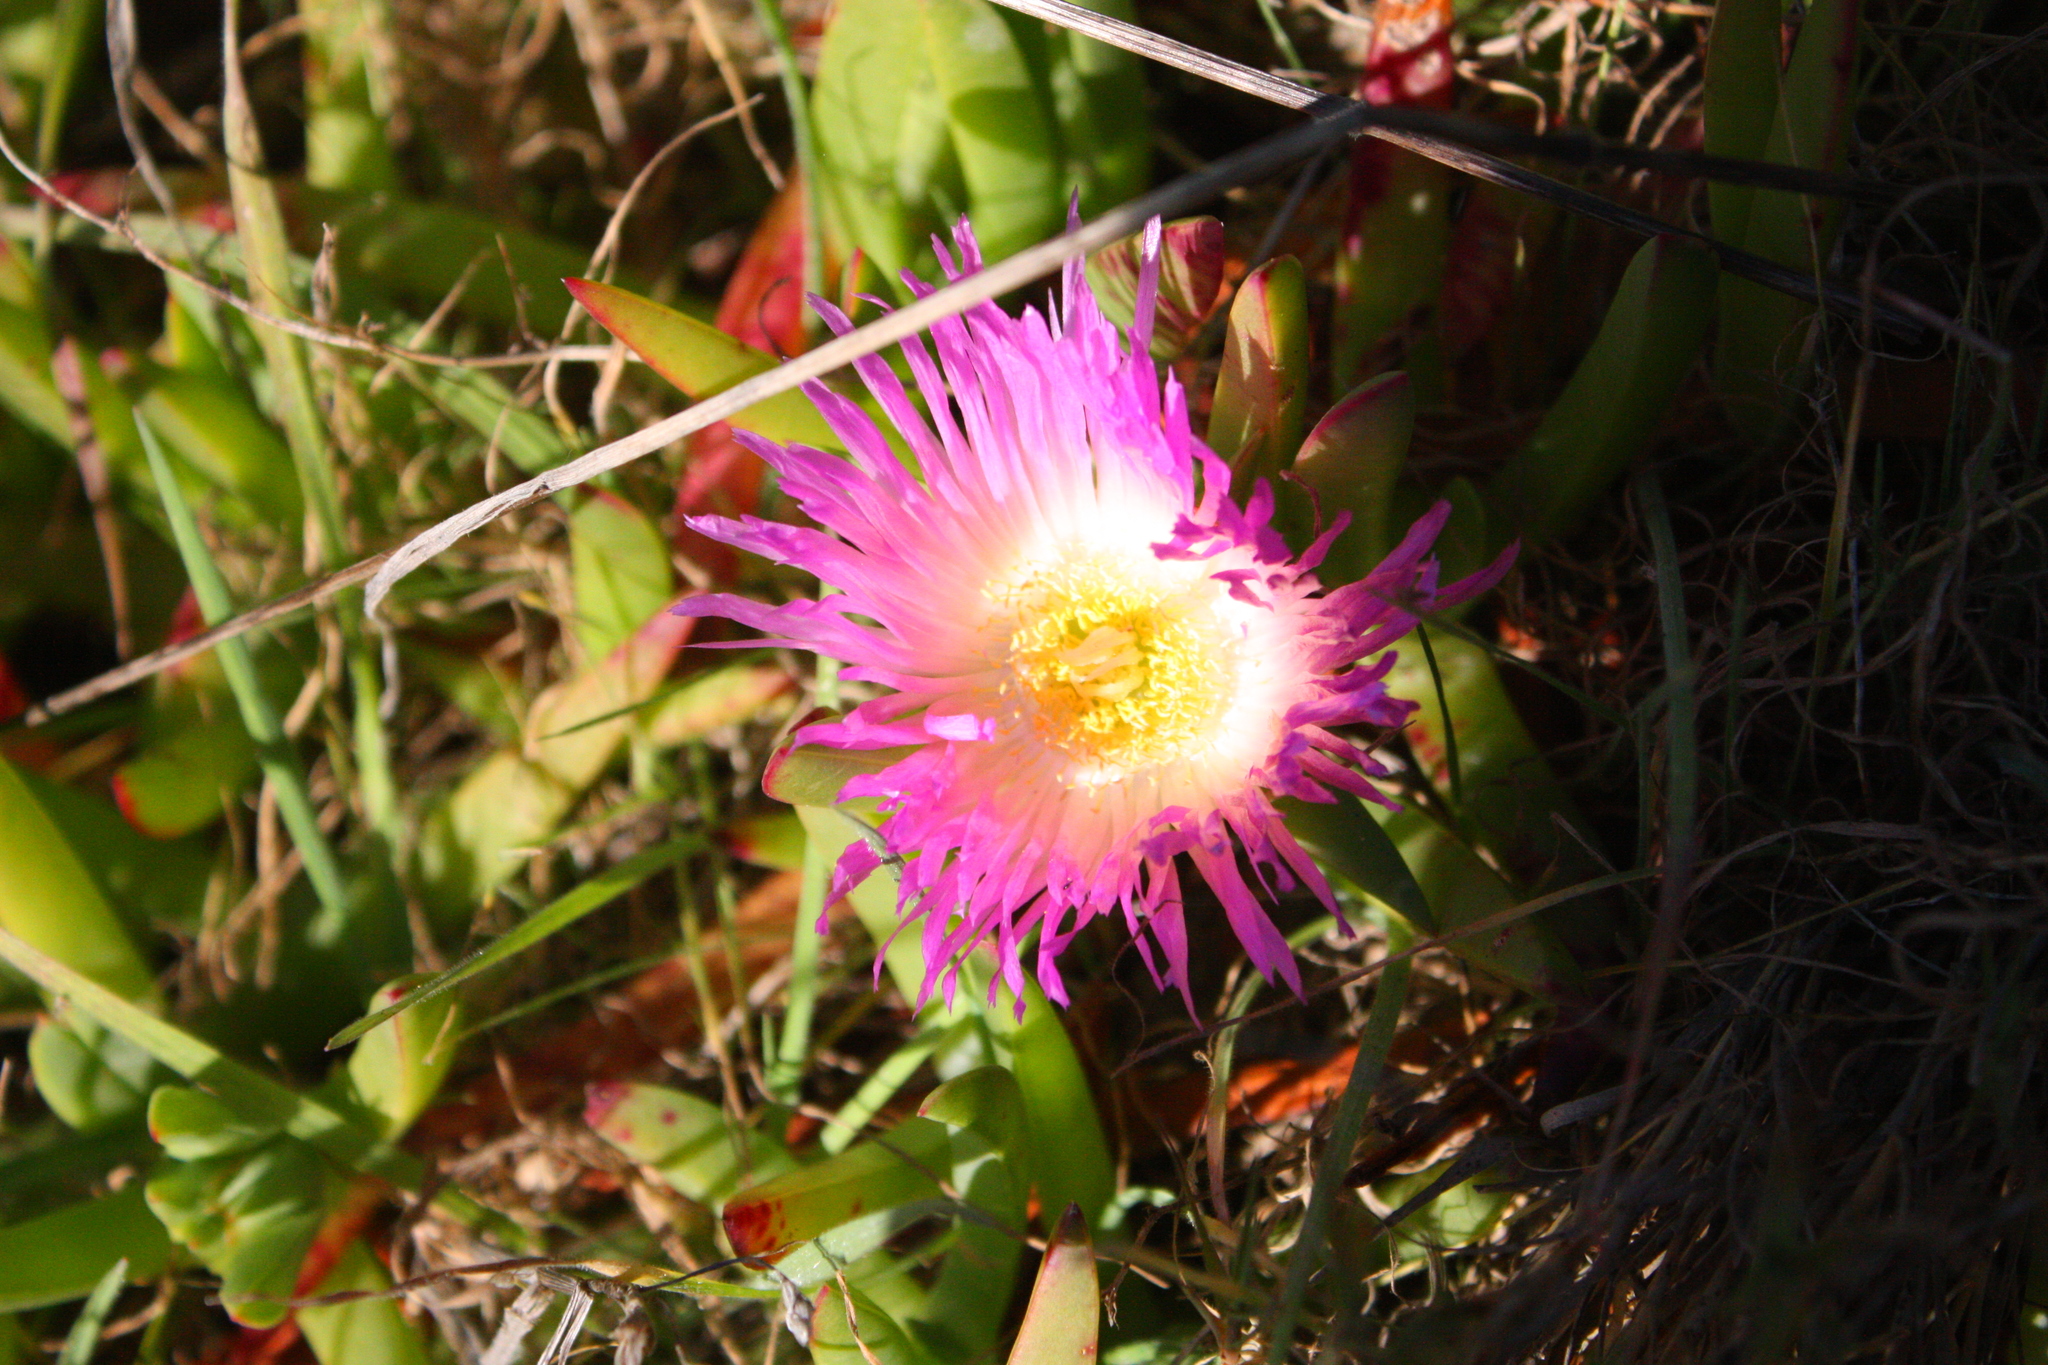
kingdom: Plantae
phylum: Tracheophyta
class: Magnoliopsida
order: Caryophyllales
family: Aizoaceae
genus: Carpobrotus
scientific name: Carpobrotus edulis
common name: Hottentot-fig
